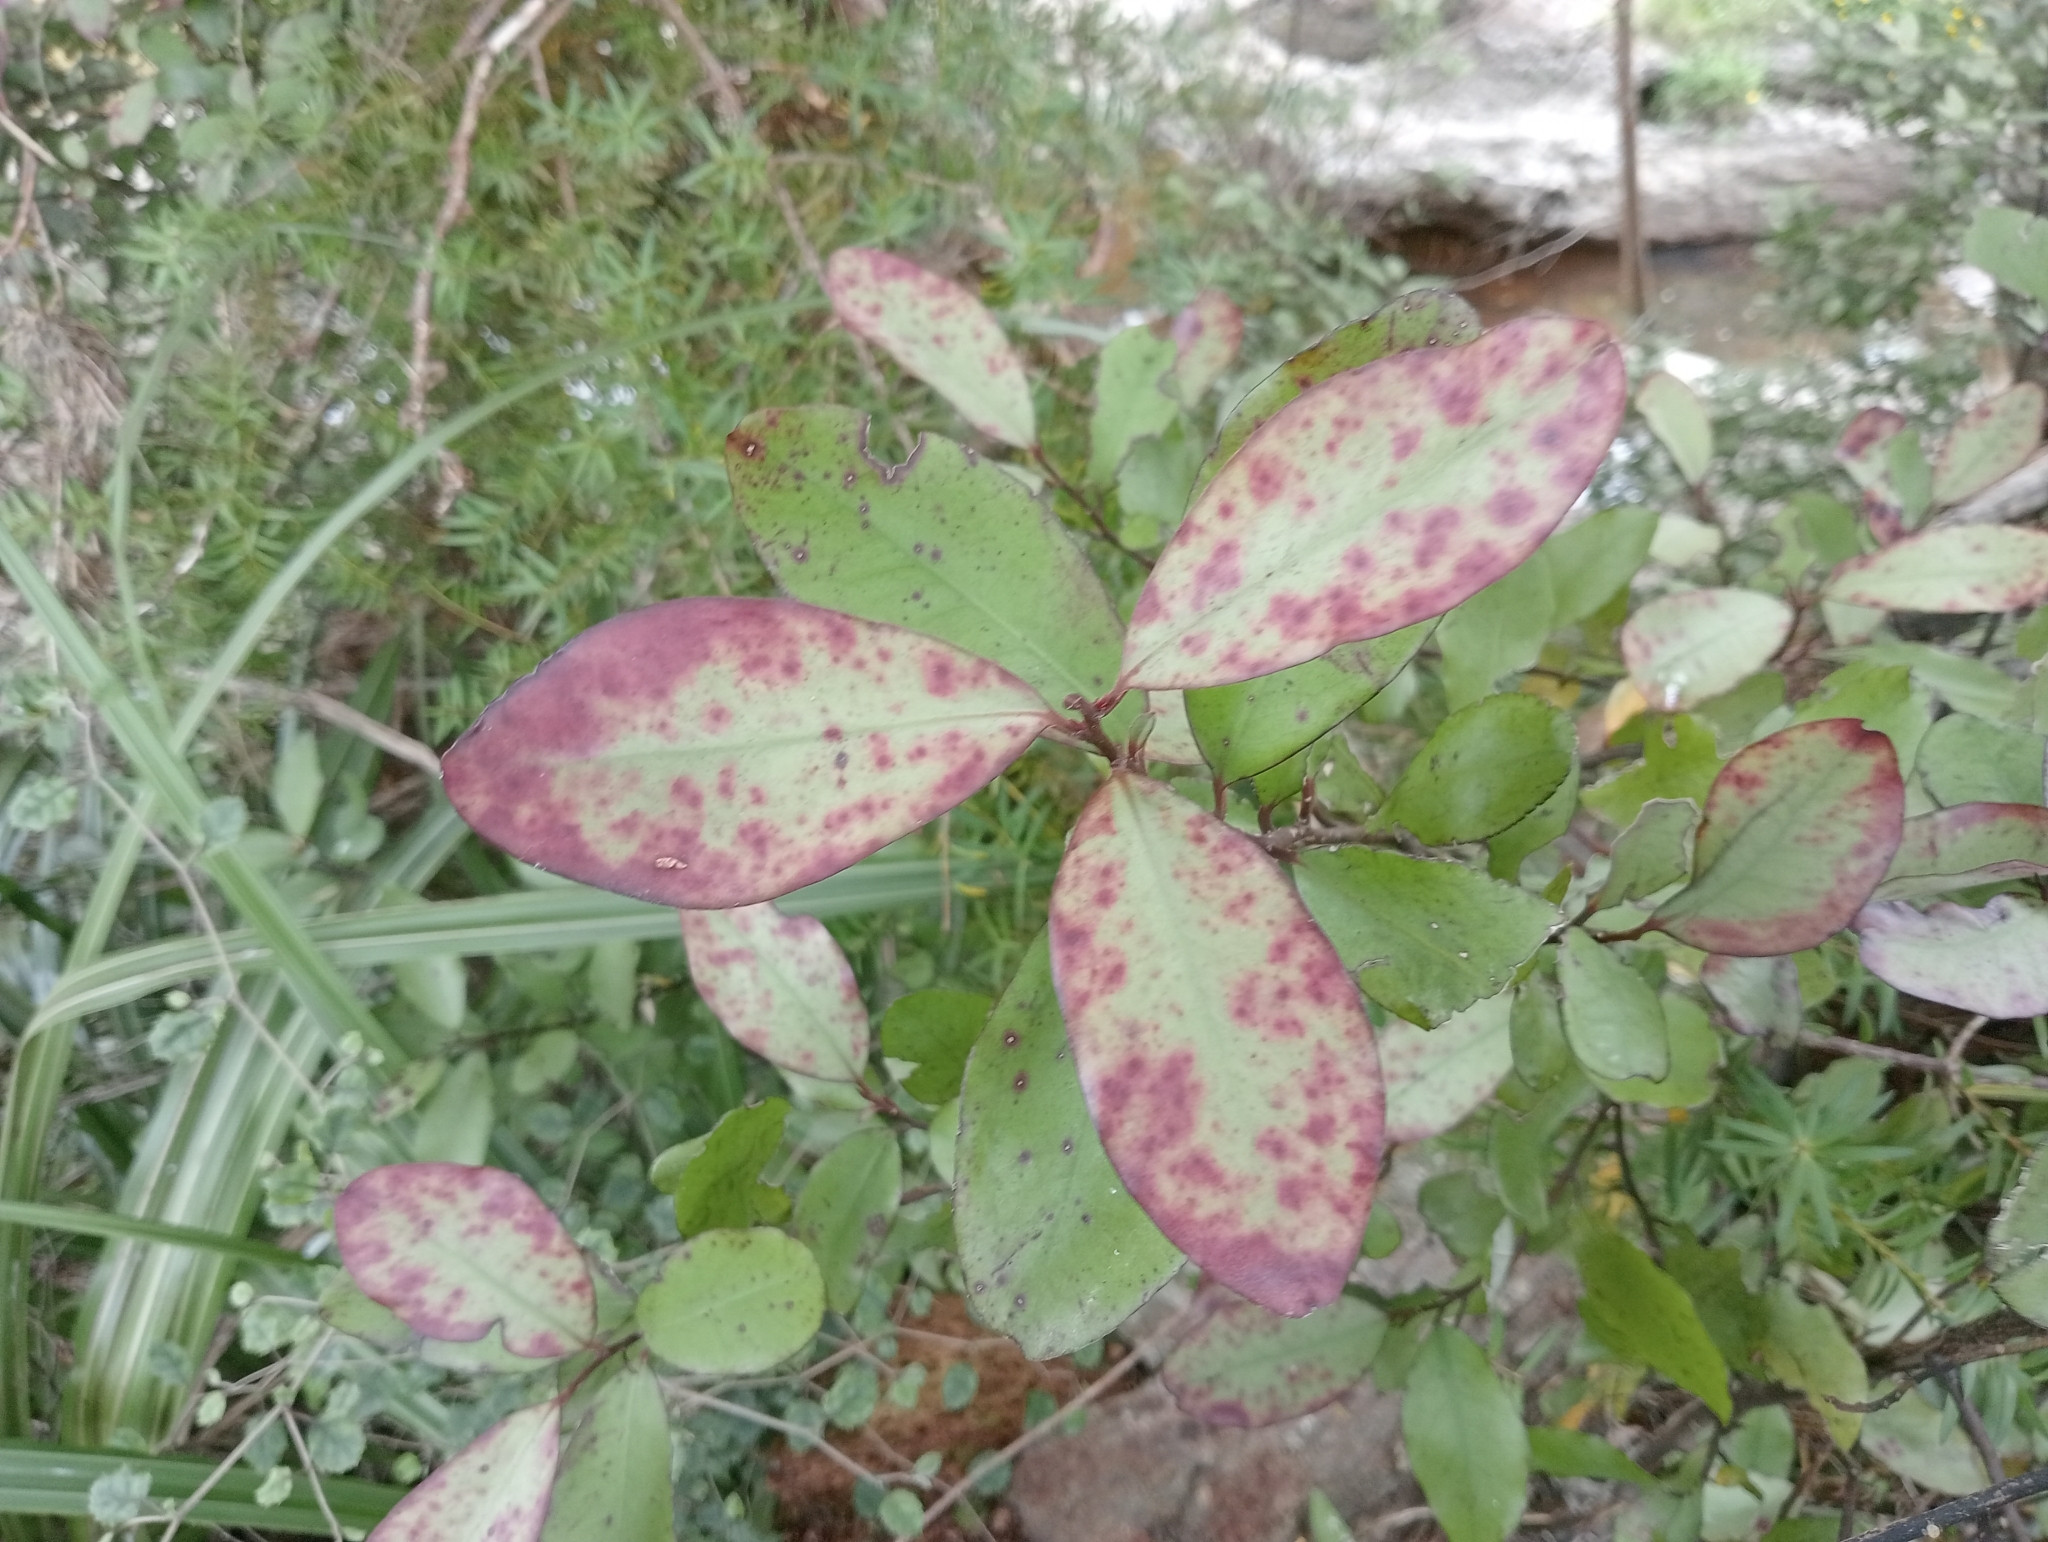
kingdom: Plantae
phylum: Tracheophyta
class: Magnoliopsida
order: Canellales
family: Winteraceae
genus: Pseudowintera
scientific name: Pseudowintera colorata
